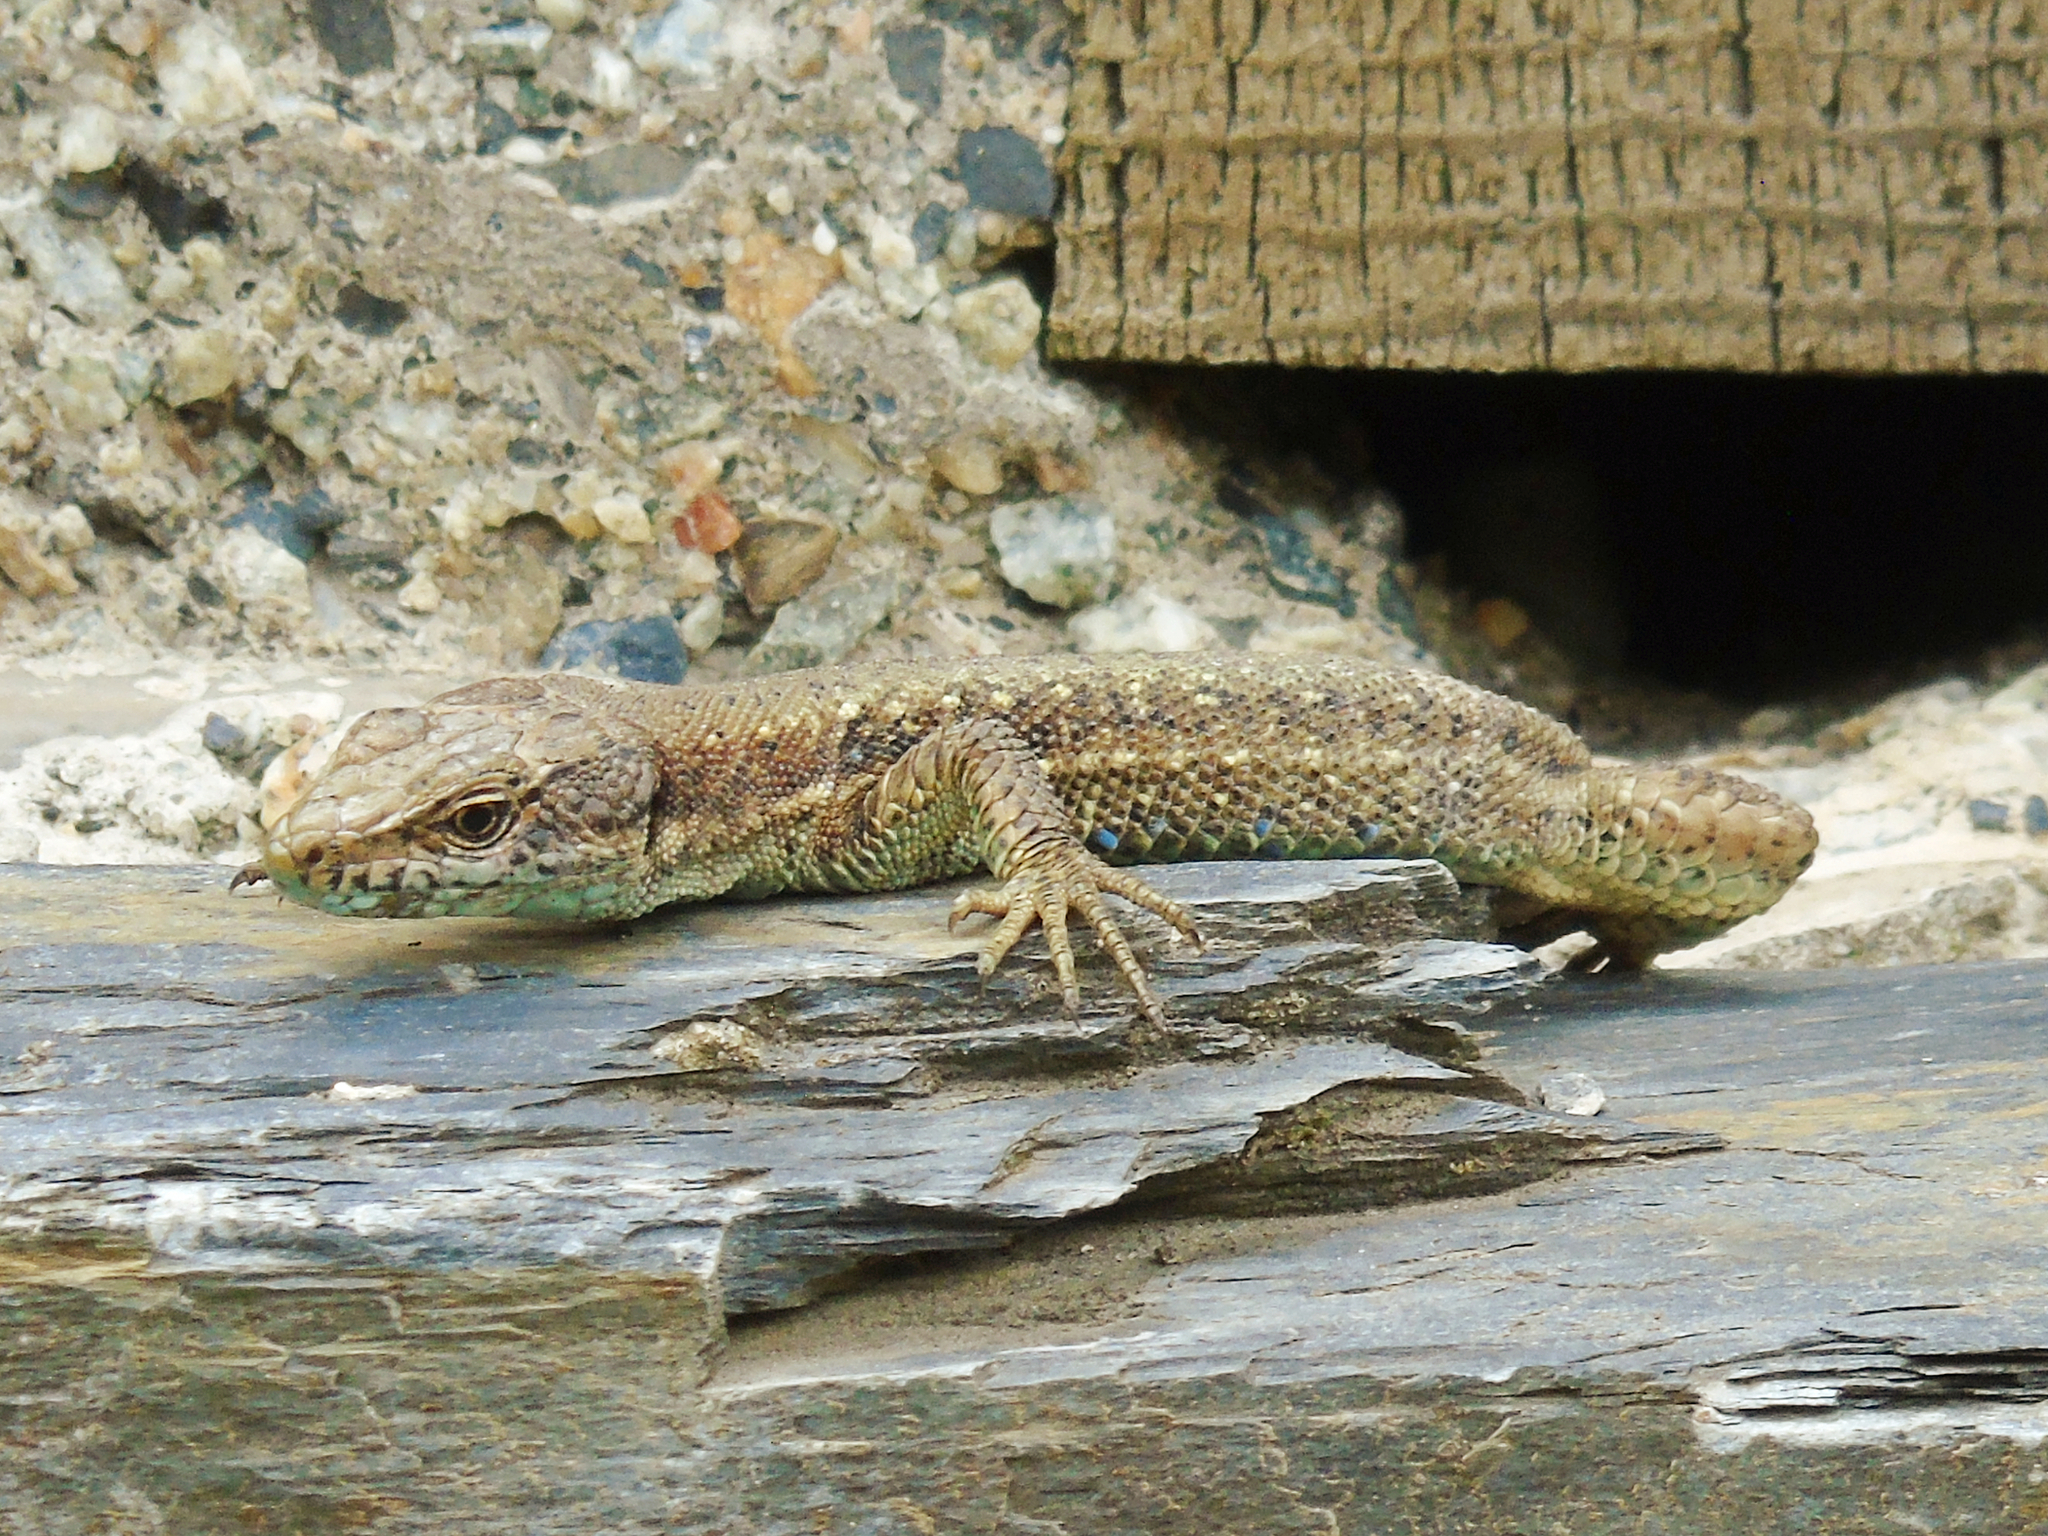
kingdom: Animalia
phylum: Chordata
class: Squamata
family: Lacertidae
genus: Darevskia
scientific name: Darevskia rudis
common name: Spiny-tailed lizard
